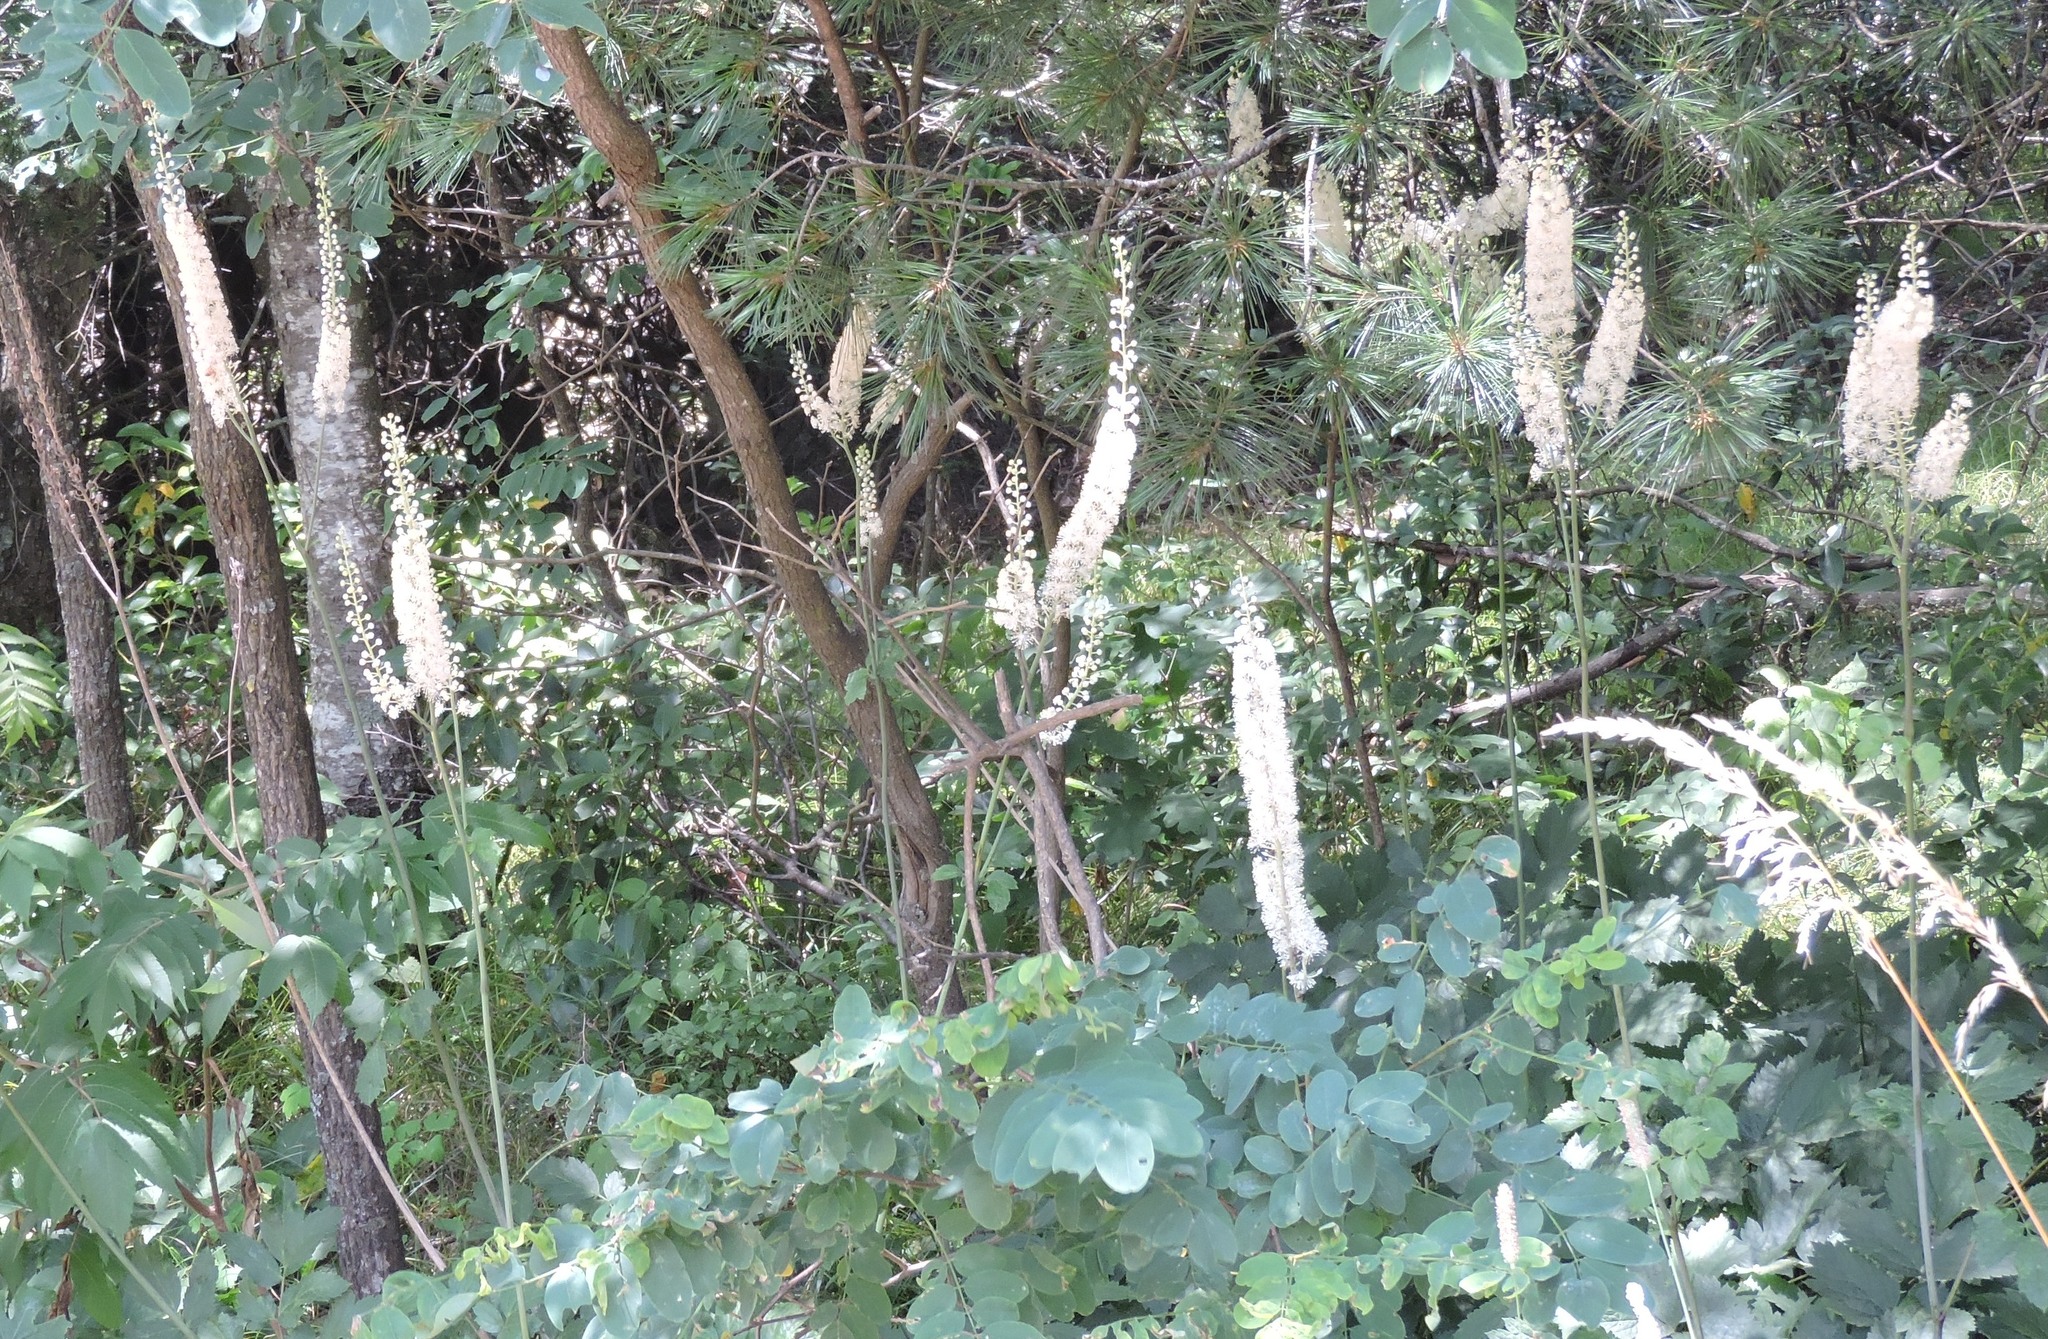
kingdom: Plantae
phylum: Tracheophyta
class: Magnoliopsida
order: Ranunculales
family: Ranunculaceae
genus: Actaea
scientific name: Actaea racemosa
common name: Black cohosh
